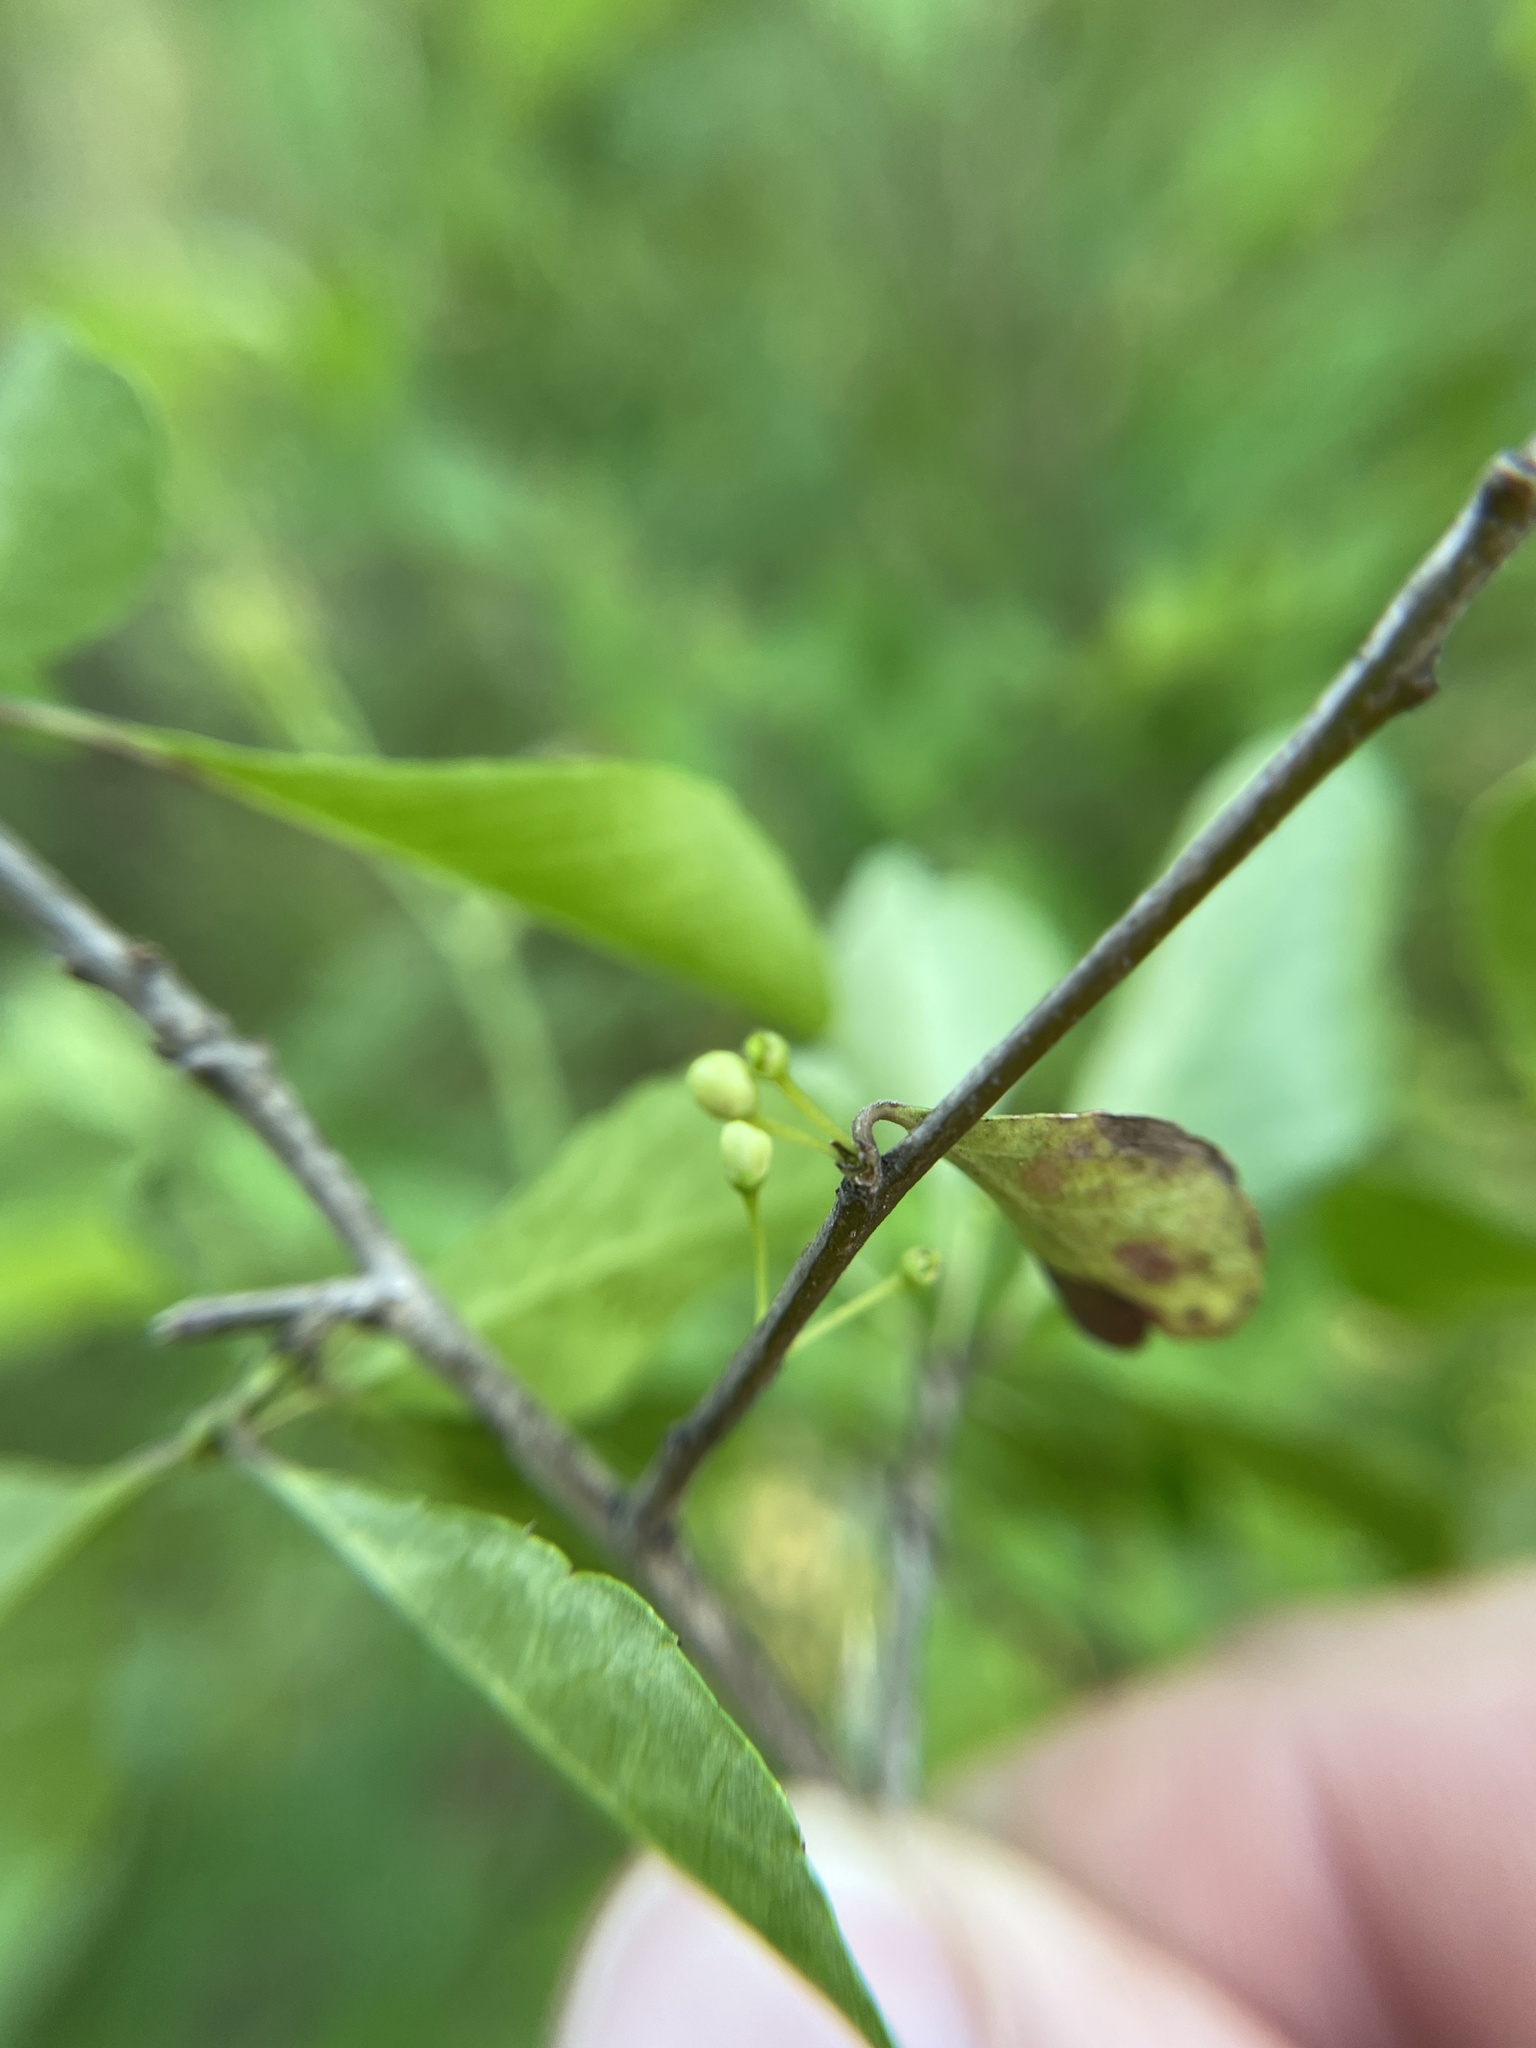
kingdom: Plantae
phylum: Tracheophyta
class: Magnoliopsida
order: Aquifoliales
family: Aquifoliaceae
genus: Ilex
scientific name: Ilex decidua
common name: Possum-haw
